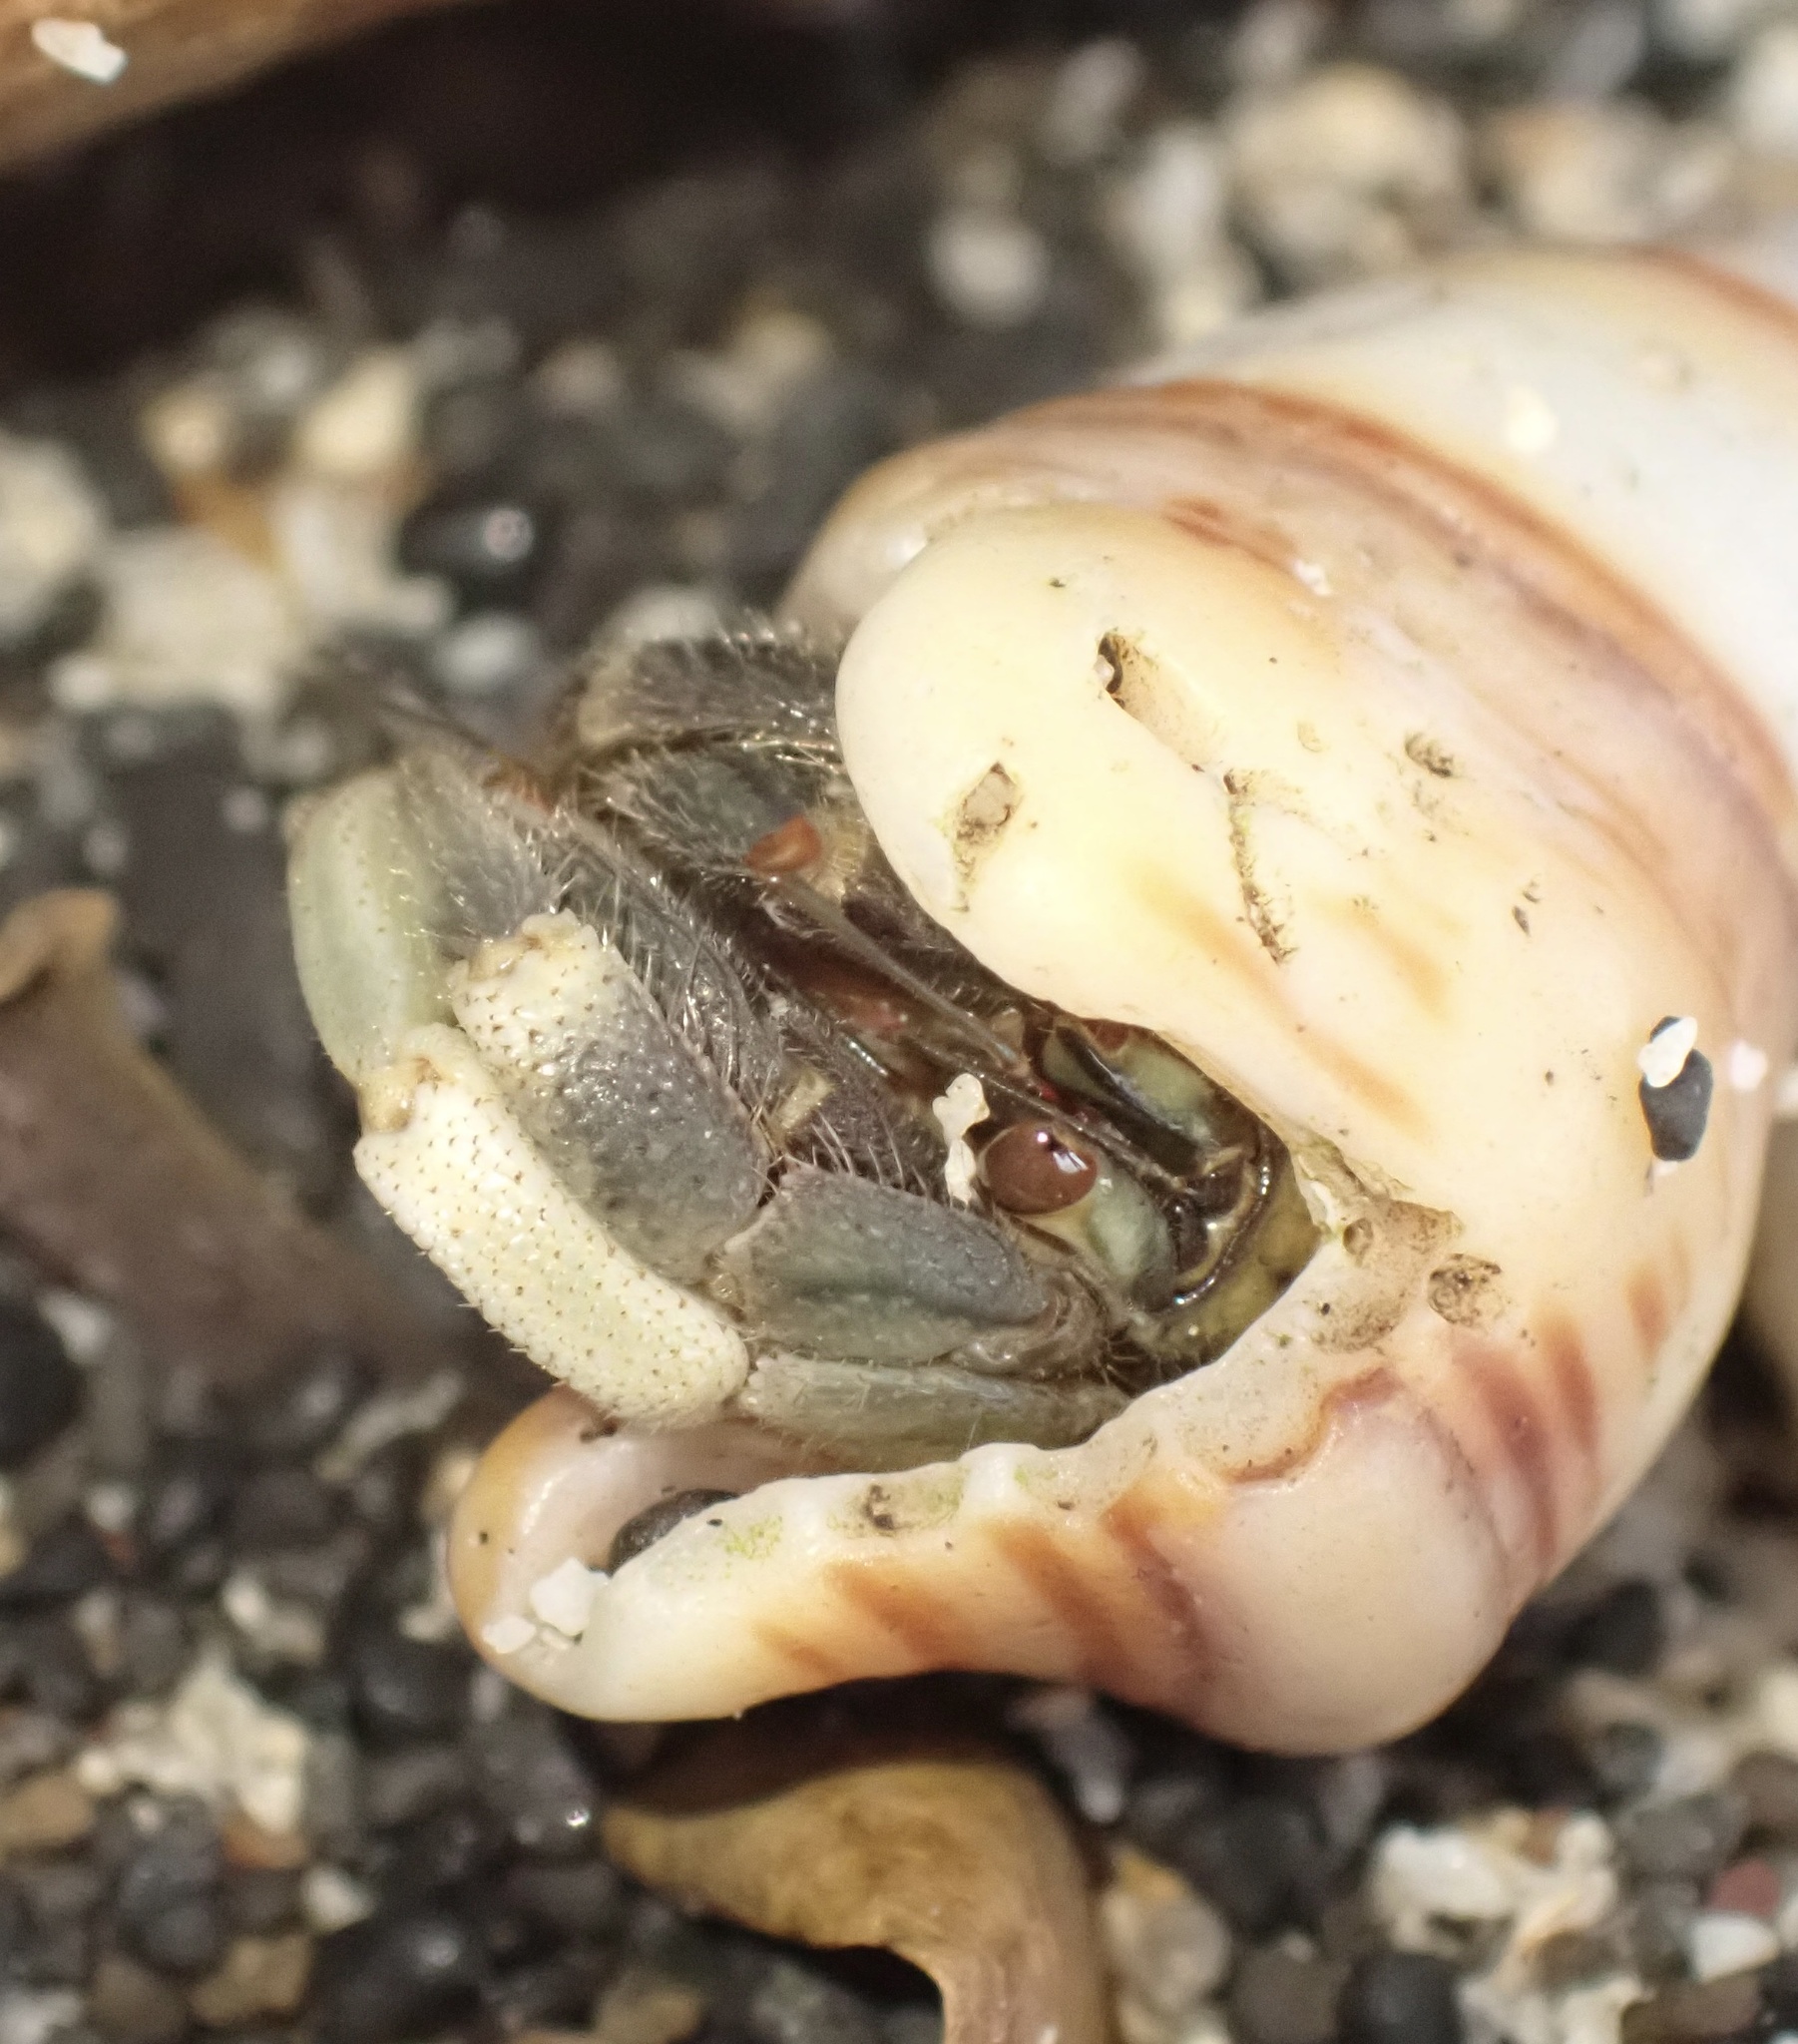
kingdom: Animalia
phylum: Arthropoda
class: Malacostraca
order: Decapoda
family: Coenobitidae
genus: Coenobita
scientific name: Coenobita rugosus
